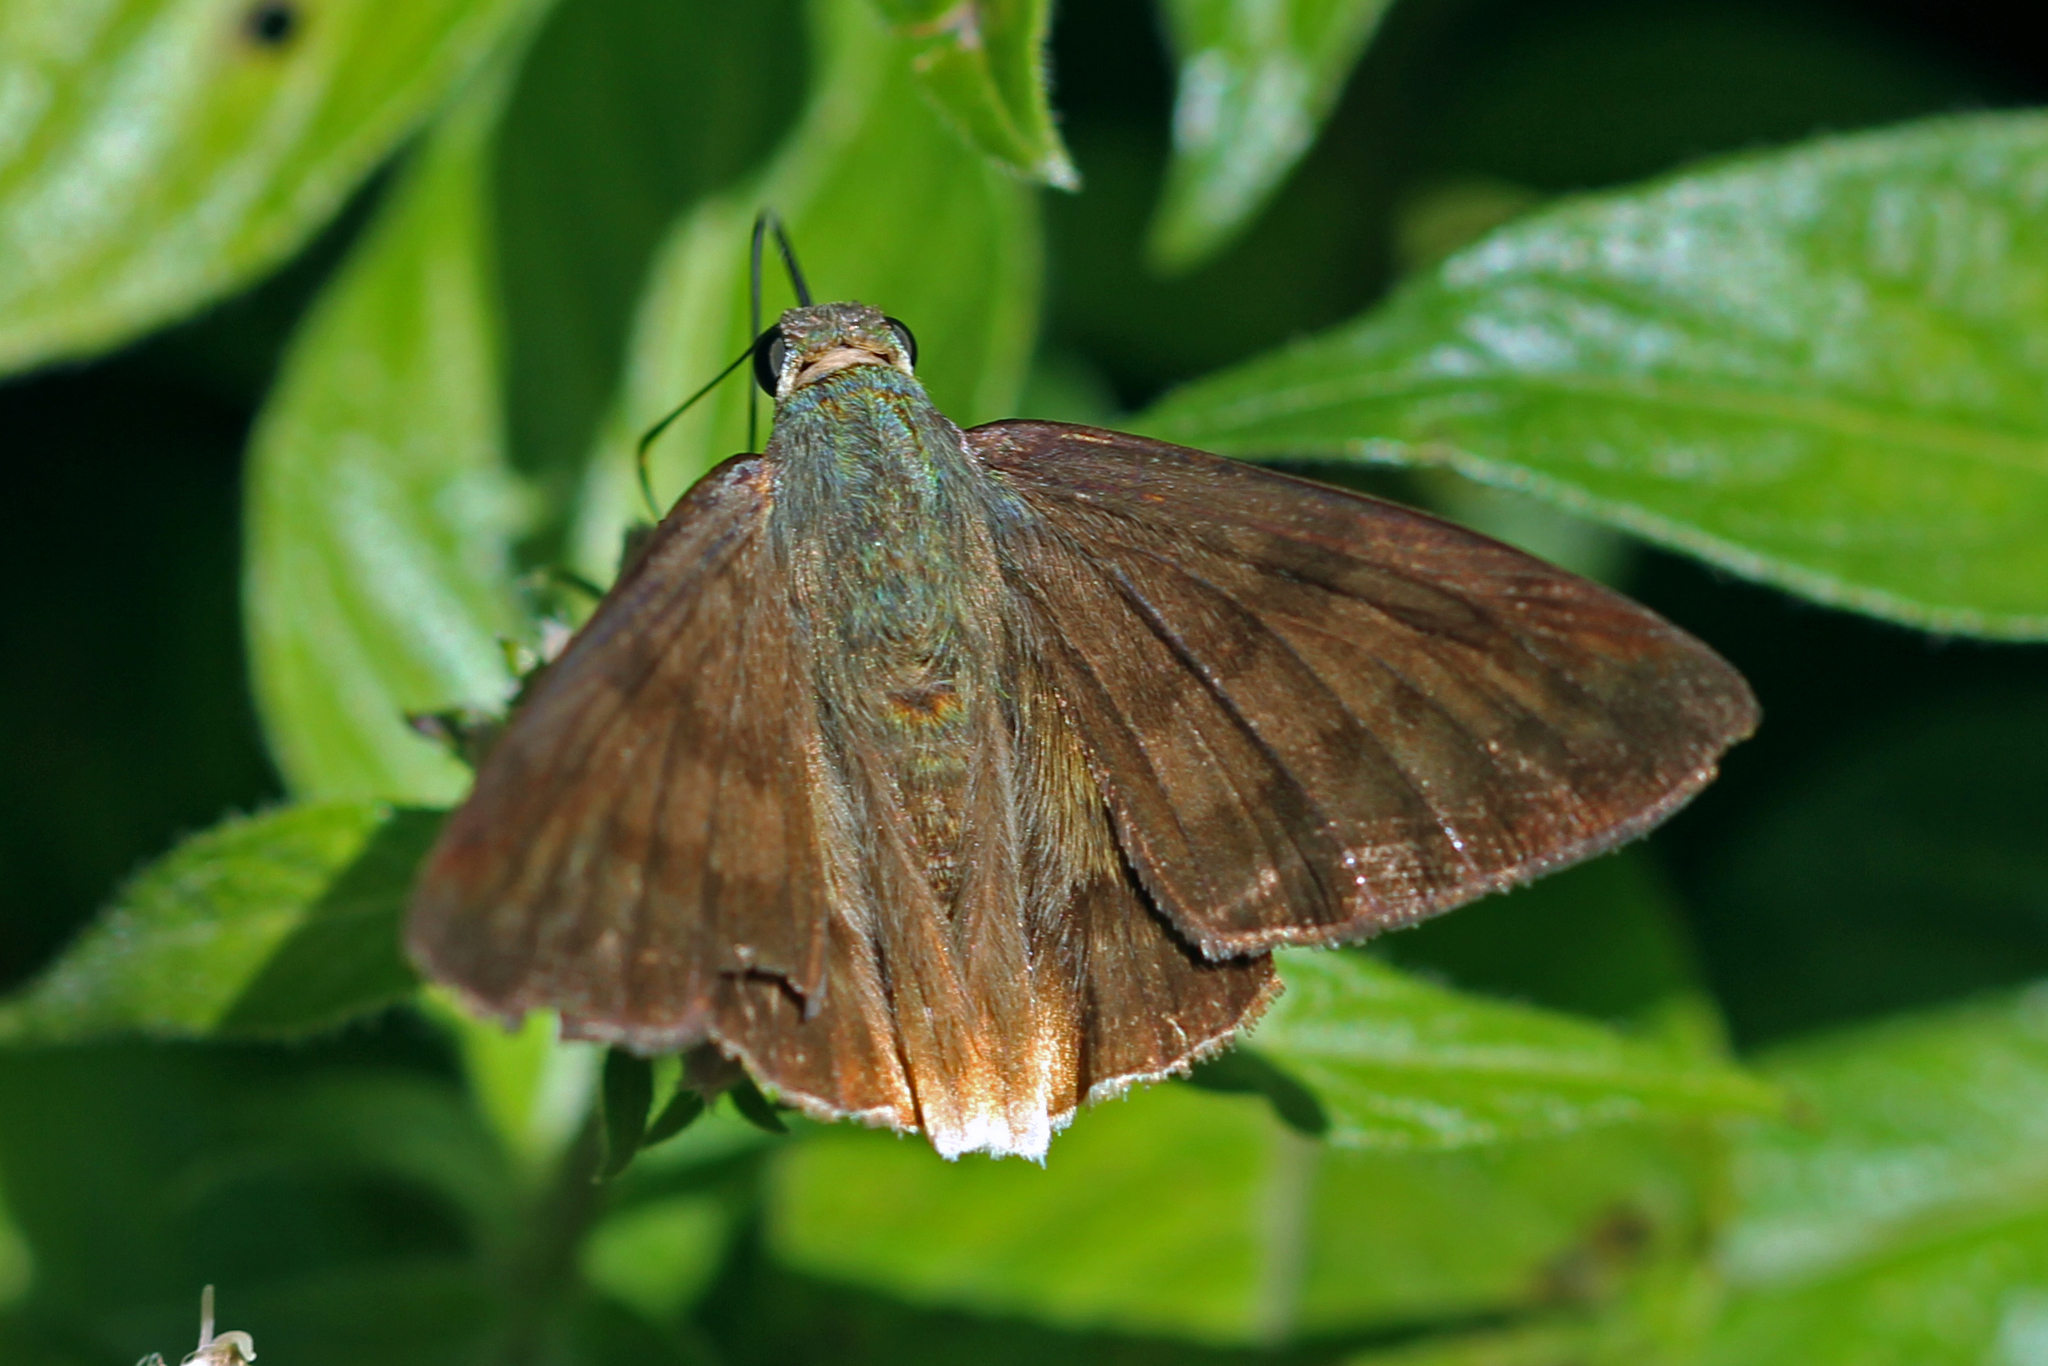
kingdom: Animalia
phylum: Arthropoda
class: Insecta
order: Lepidoptera
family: Hesperiidae
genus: Astraptes
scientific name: Astraptes anaphus
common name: Yellow-tipped flasher
